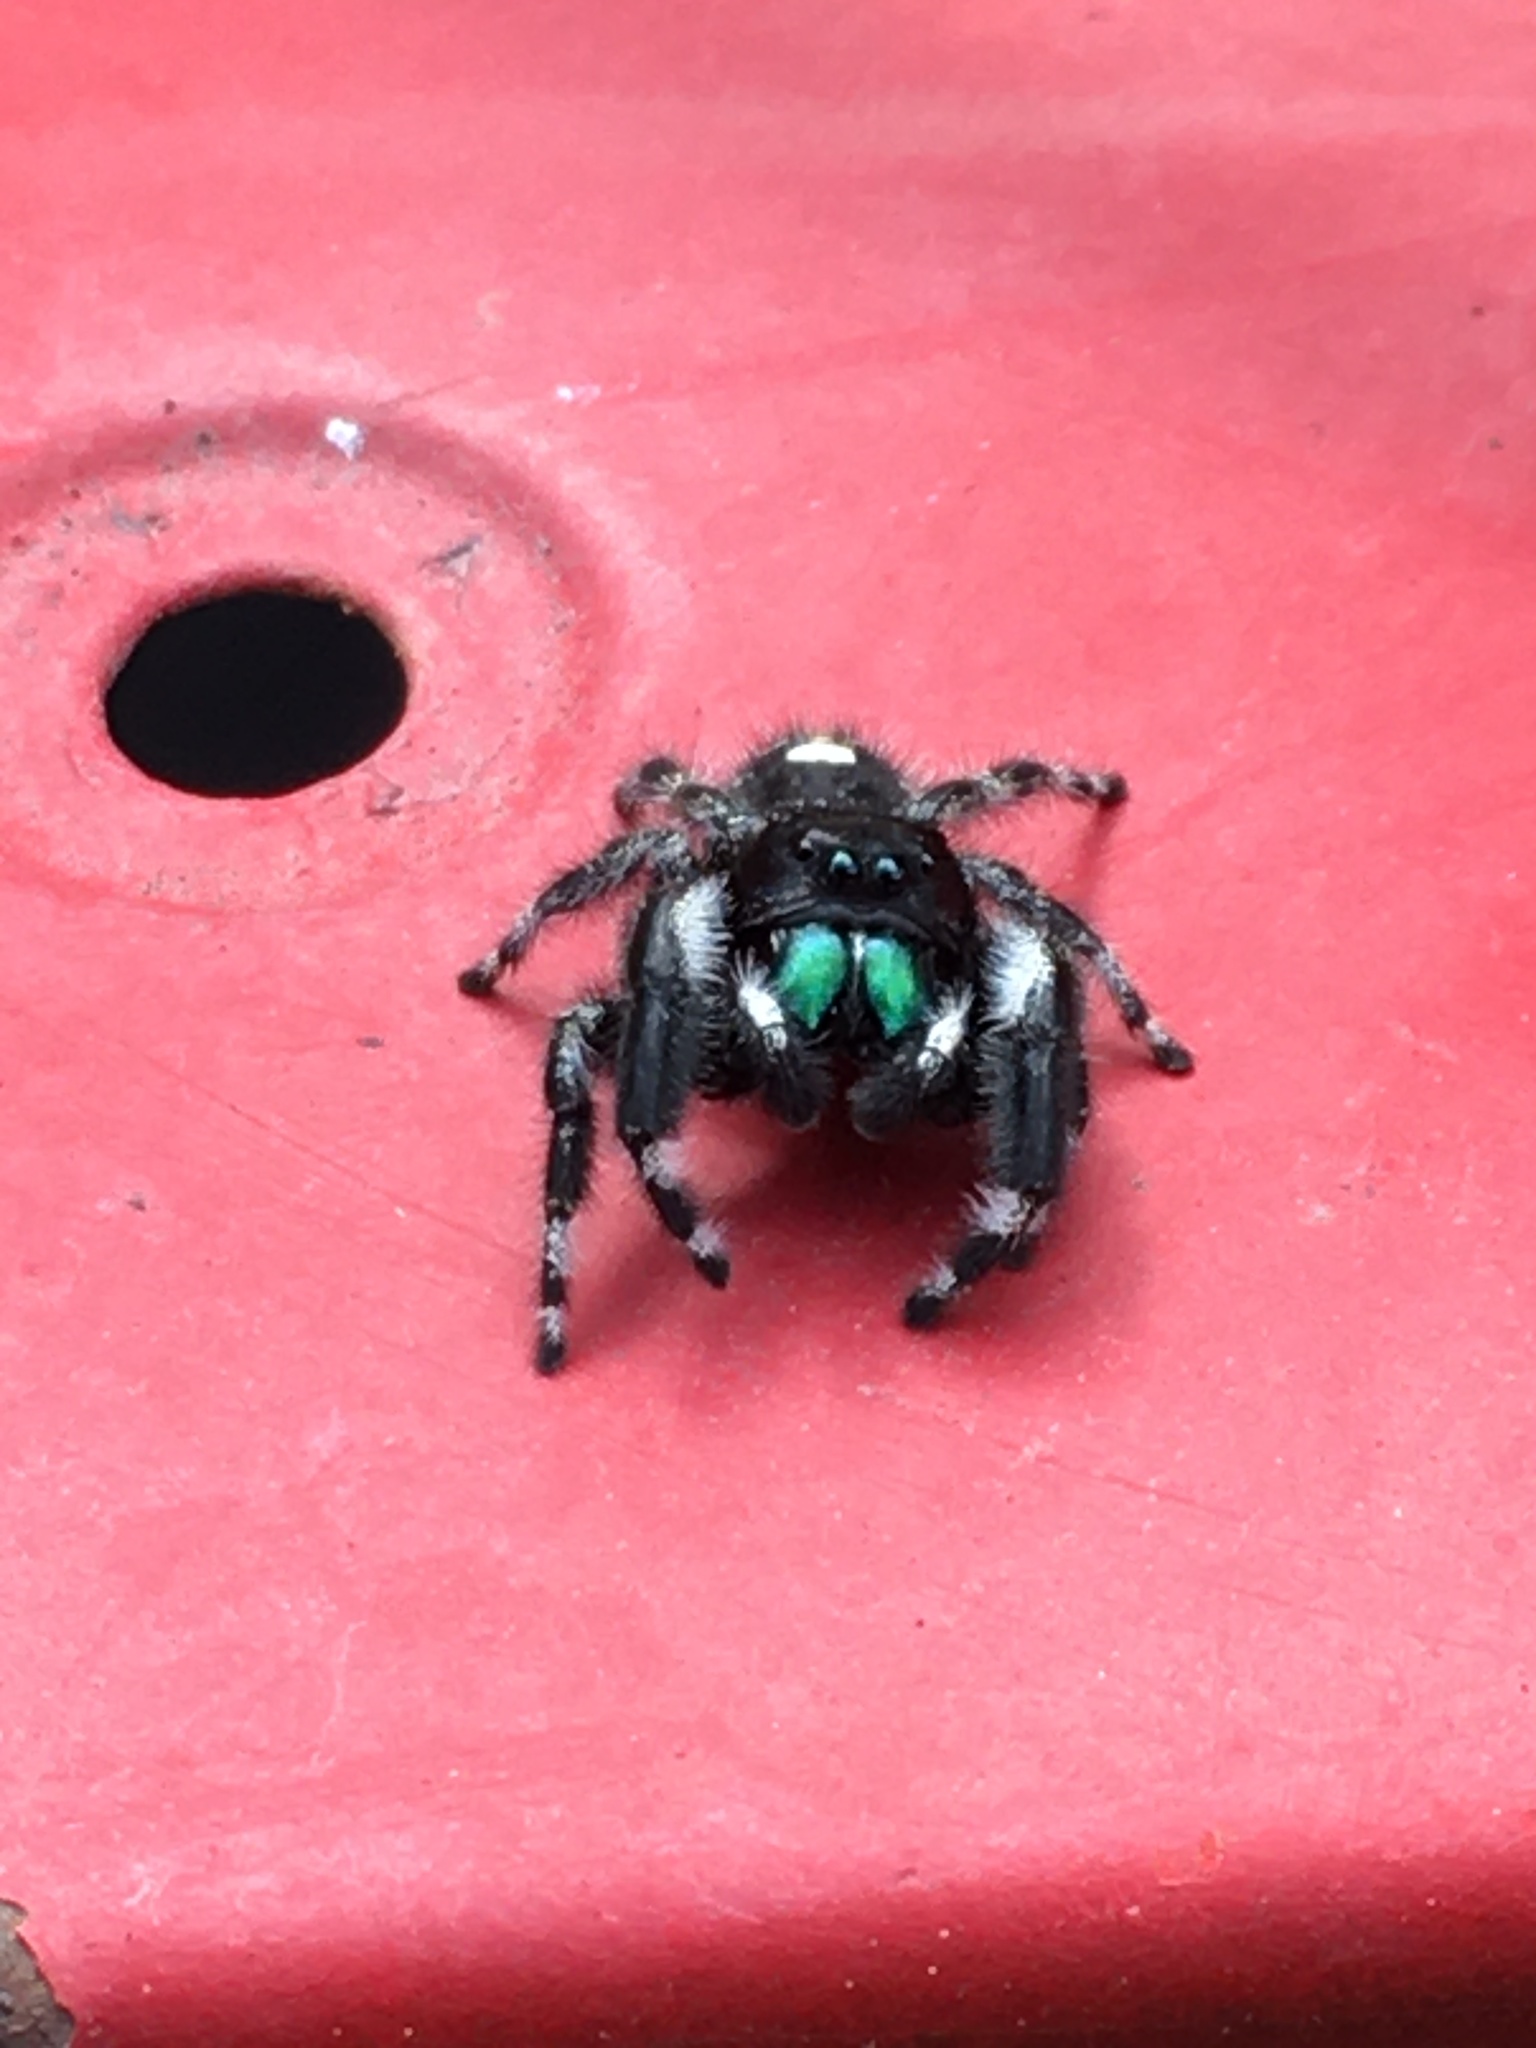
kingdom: Animalia
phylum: Arthropoda
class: Arachnida
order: Araneae
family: Salticidae
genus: Phidippus
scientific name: Phidippus audax
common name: Bold jumper
